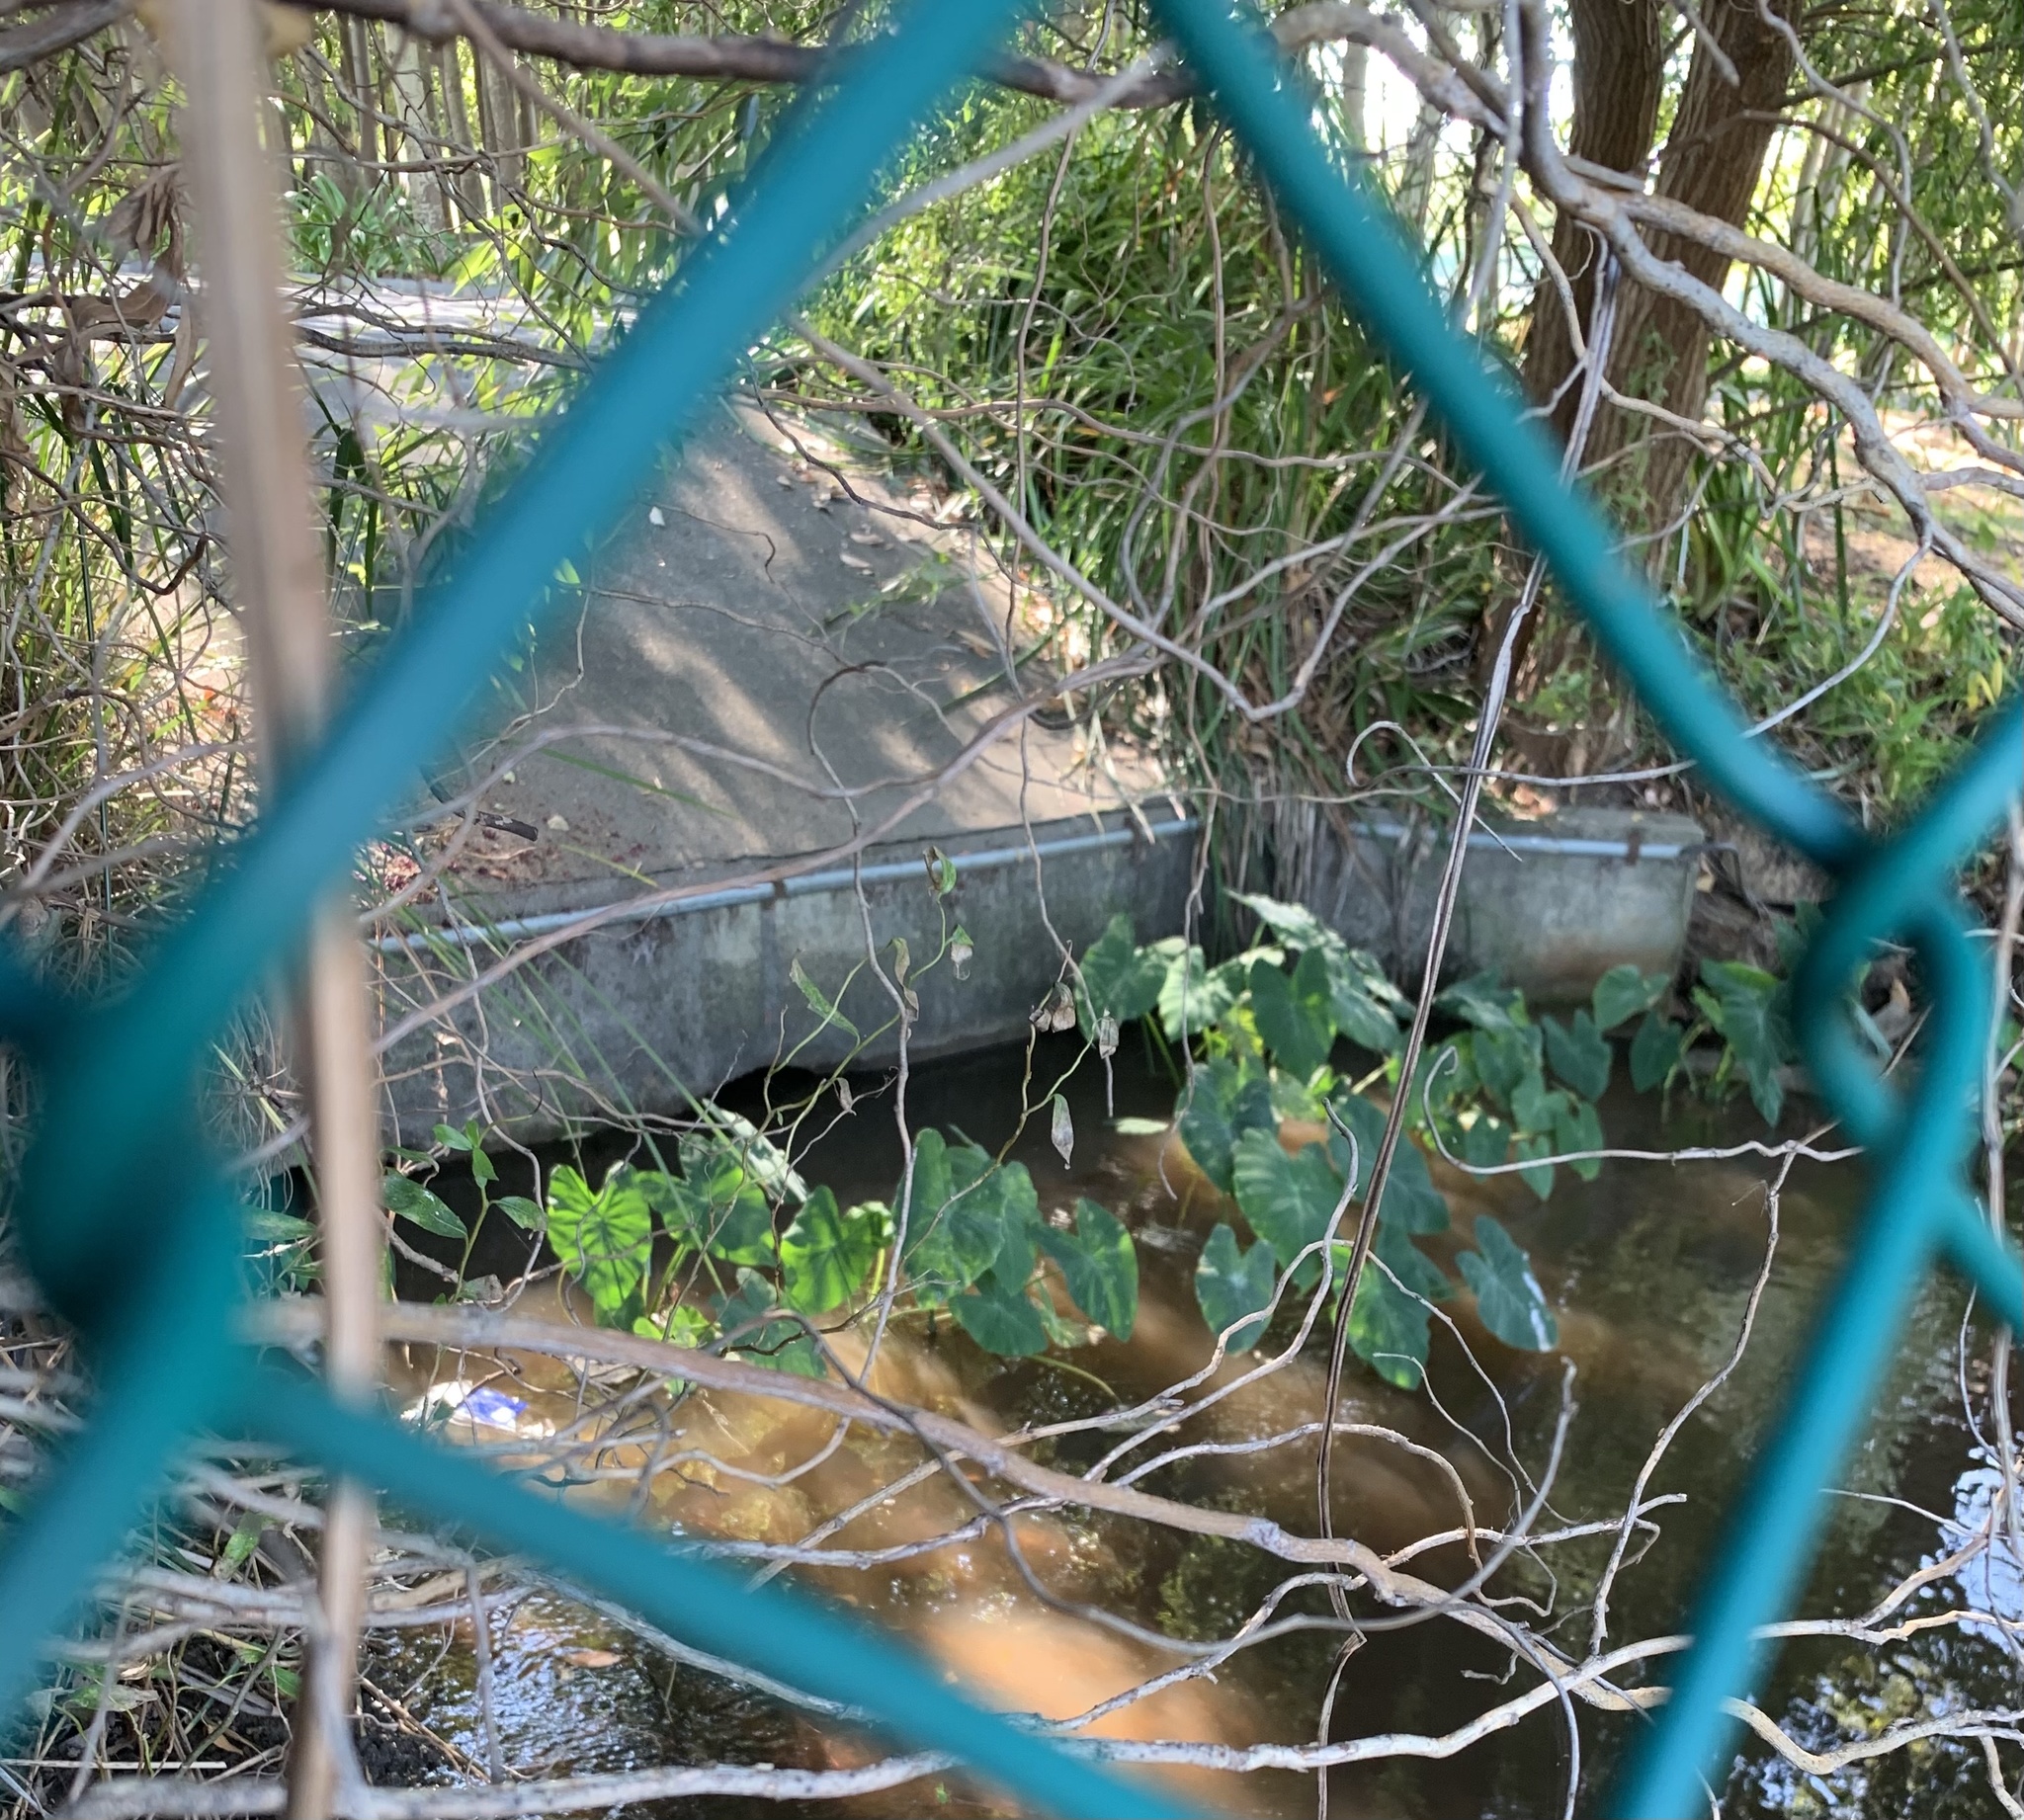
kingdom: Plantae
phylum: Tracheophyta
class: Liliopsida
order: Alismatales
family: Araceae
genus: Colocasia
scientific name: Colocasia esculenta
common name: Taro
